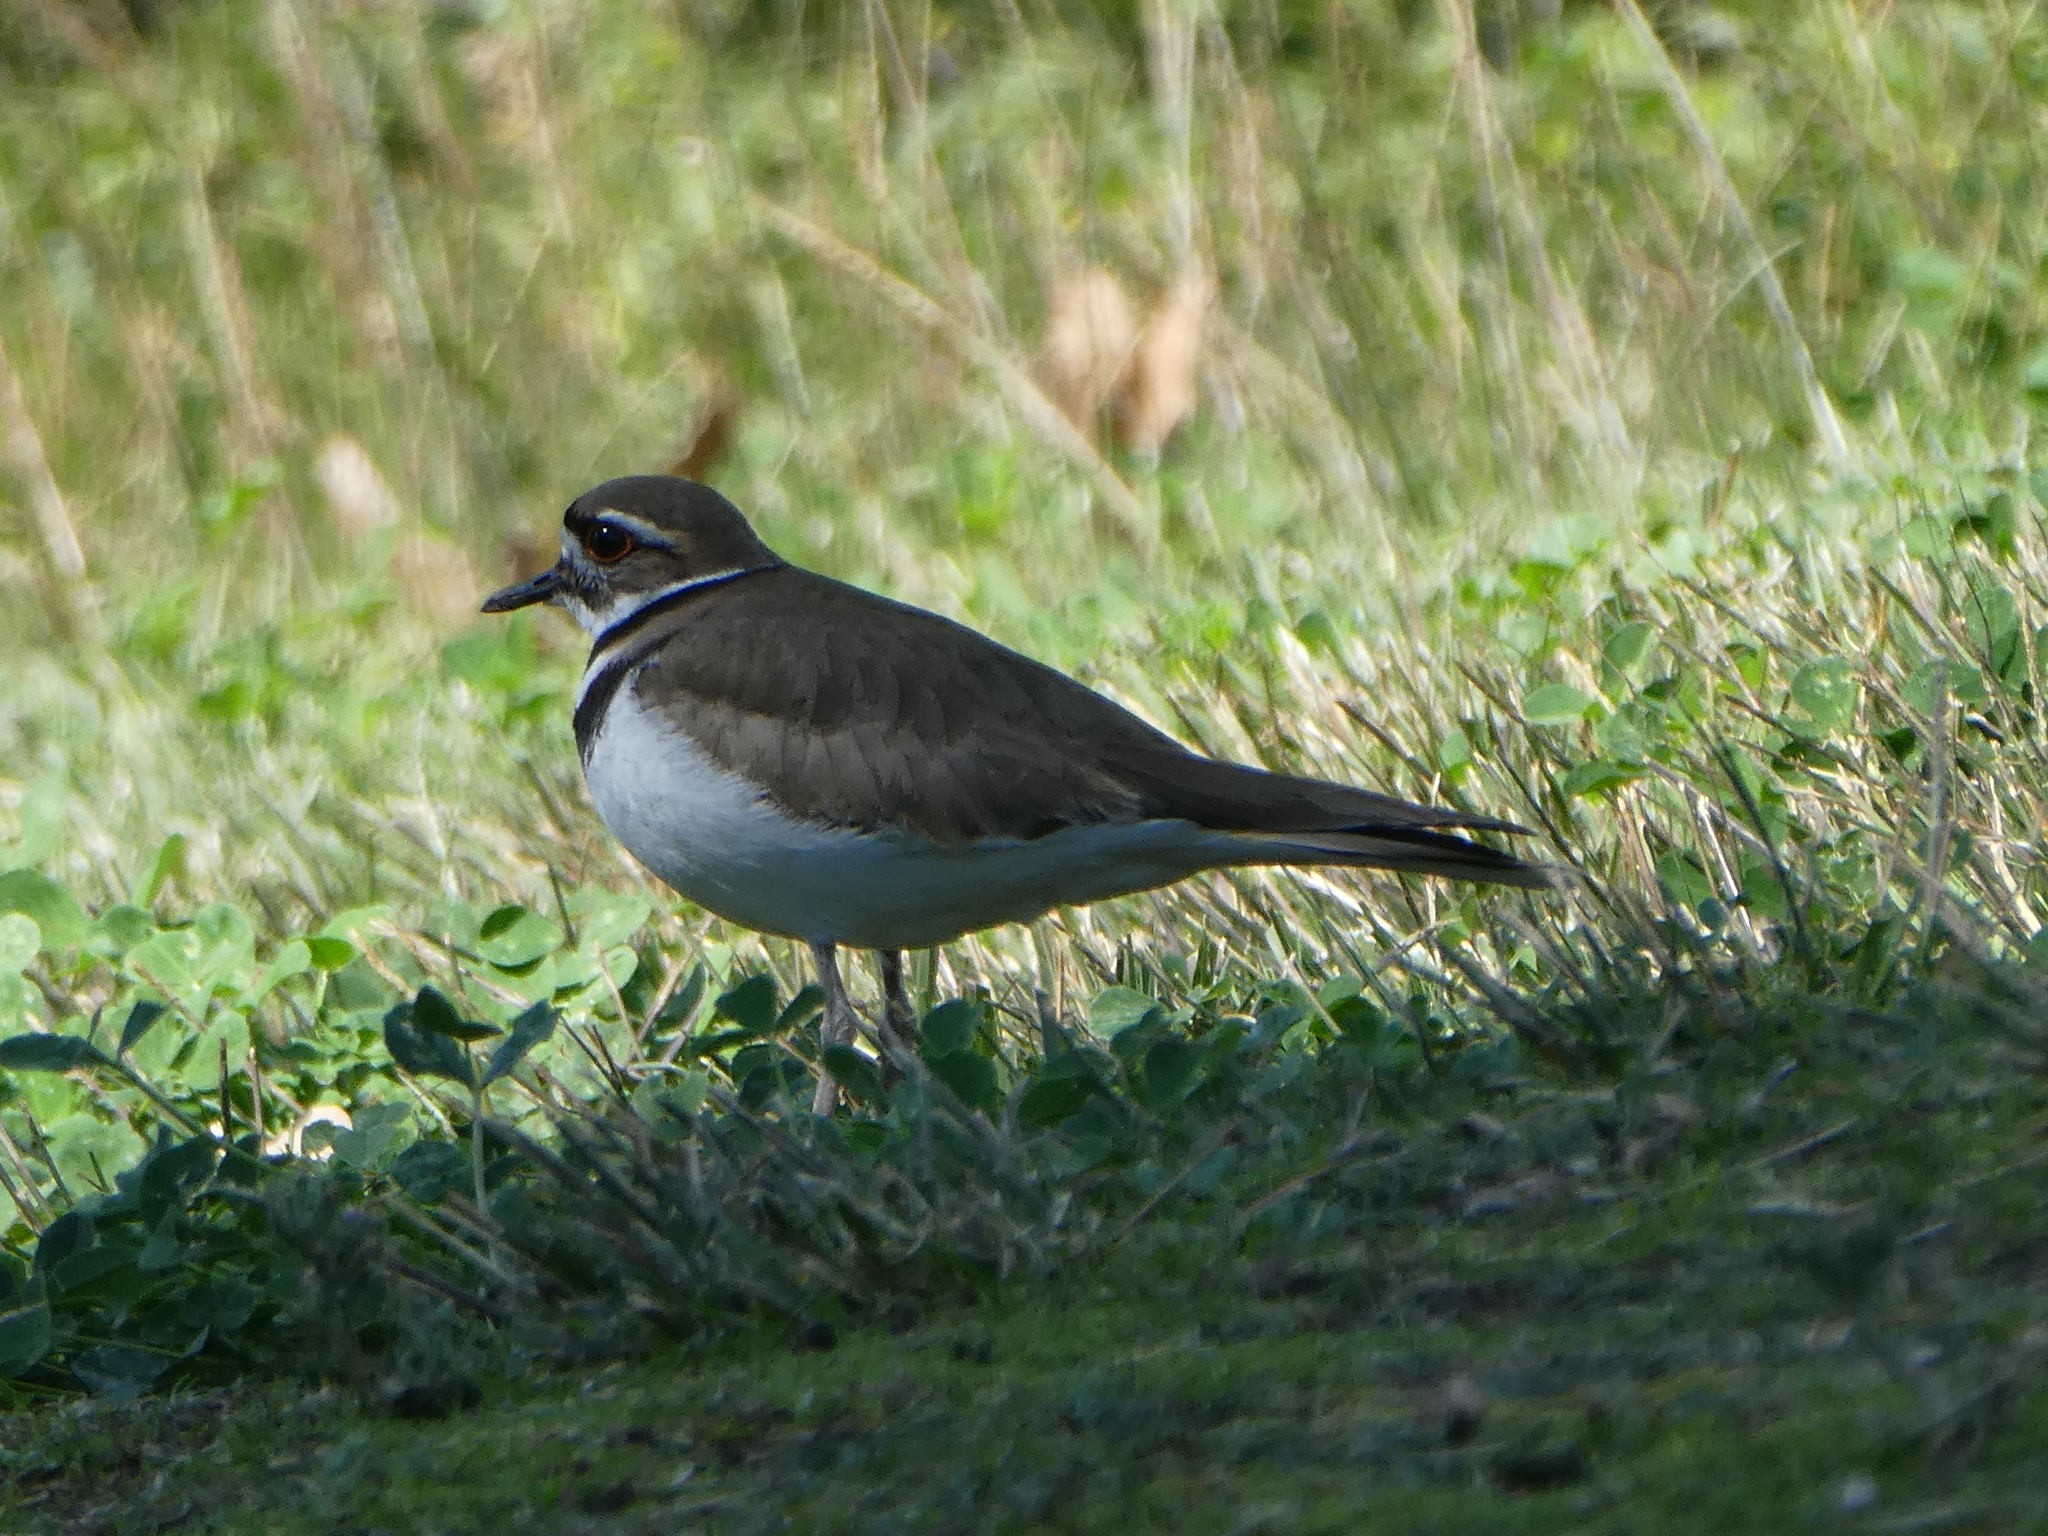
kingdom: Animalia
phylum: Chordata
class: Aves
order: Charadriiformes
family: Charadriidae
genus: Charadrius
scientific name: Charadrius vociferus
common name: Killdeer
